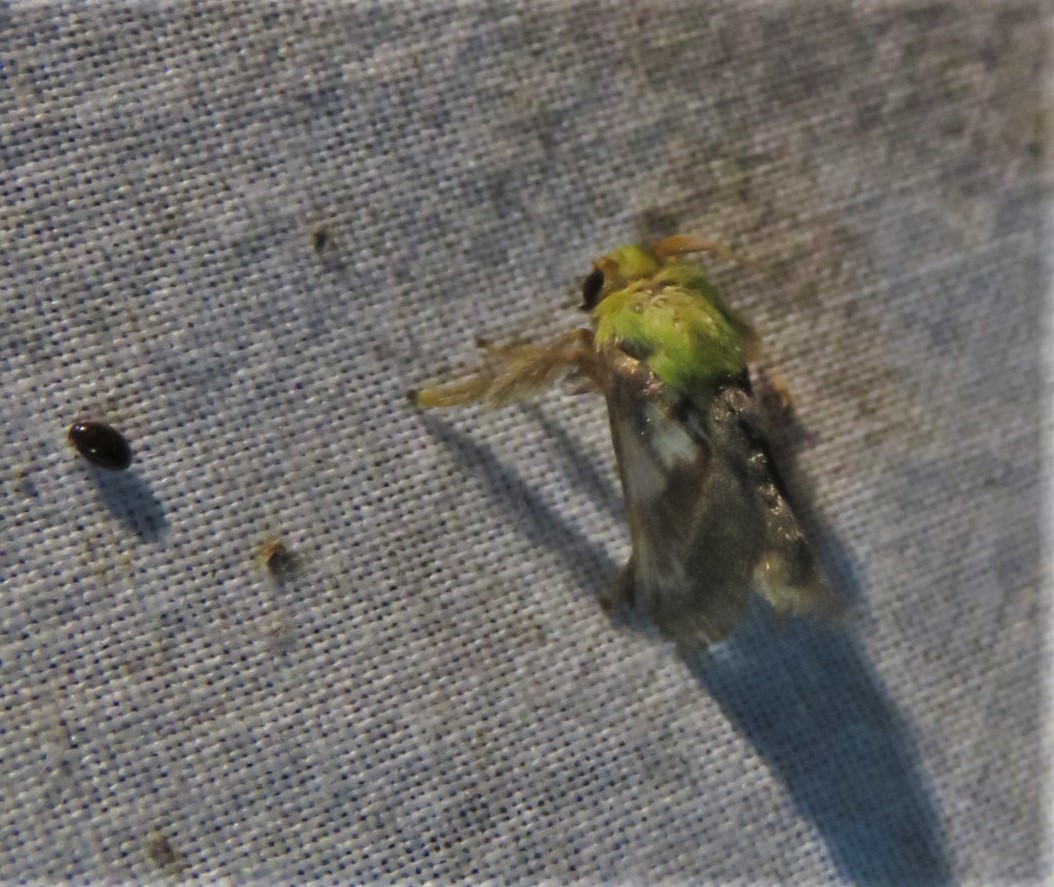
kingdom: Animalia
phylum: Arthropoda
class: Insecta
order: Lepidoptera
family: Limacodidae
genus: Parasa
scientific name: Parasa viridogrisea
